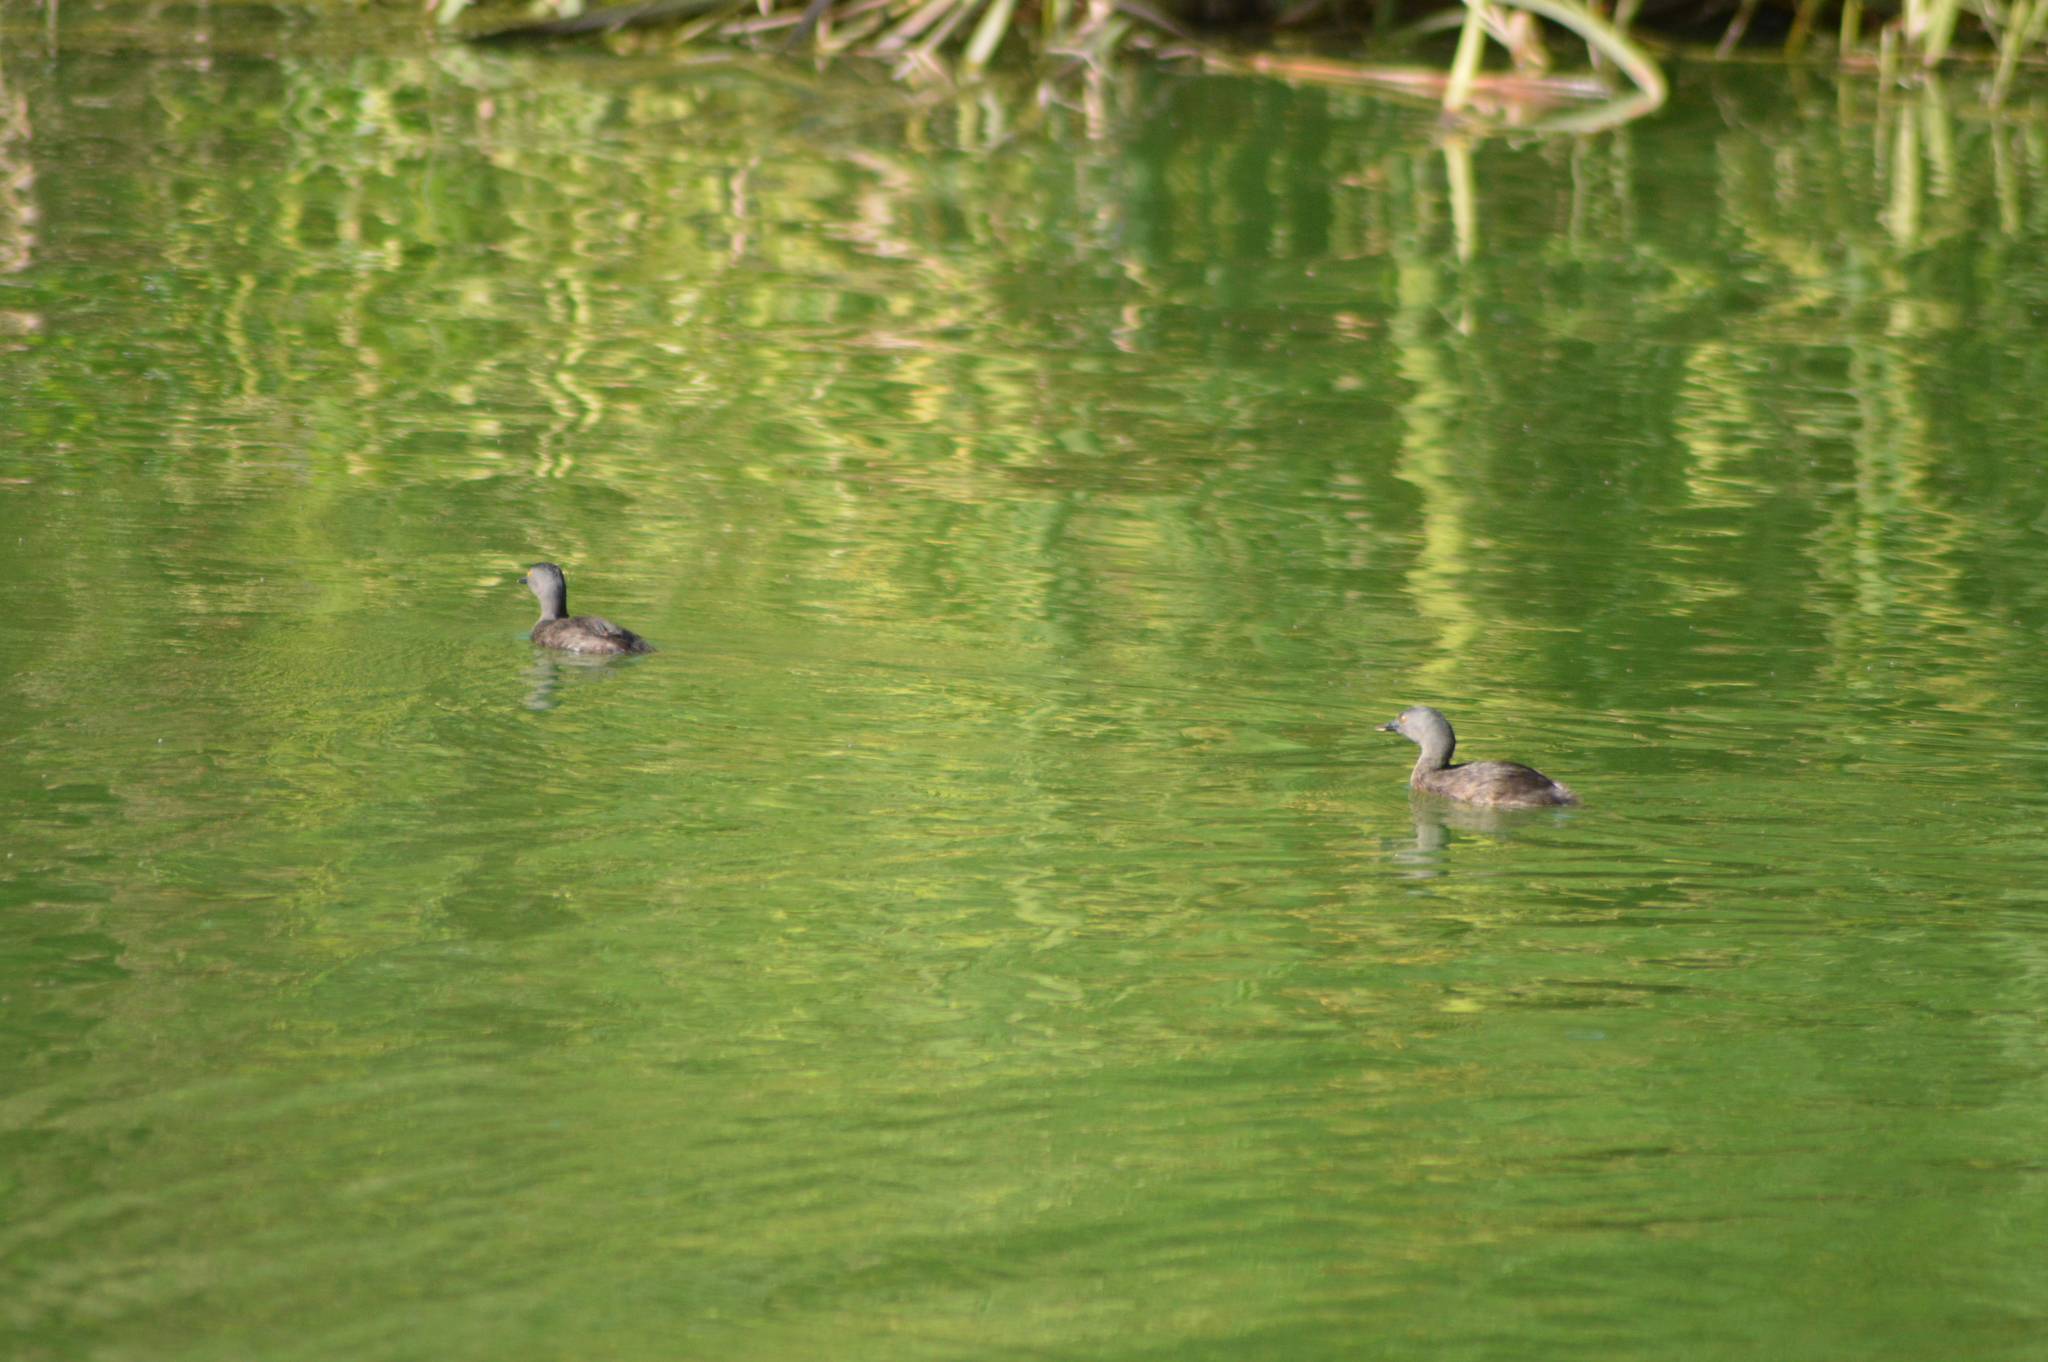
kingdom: Animalia
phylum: Chordata
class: Aves
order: Podicipediformes
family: Podicipedidae
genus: Tachybaptus
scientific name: Tachybaptus dominicus
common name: Least grebe
